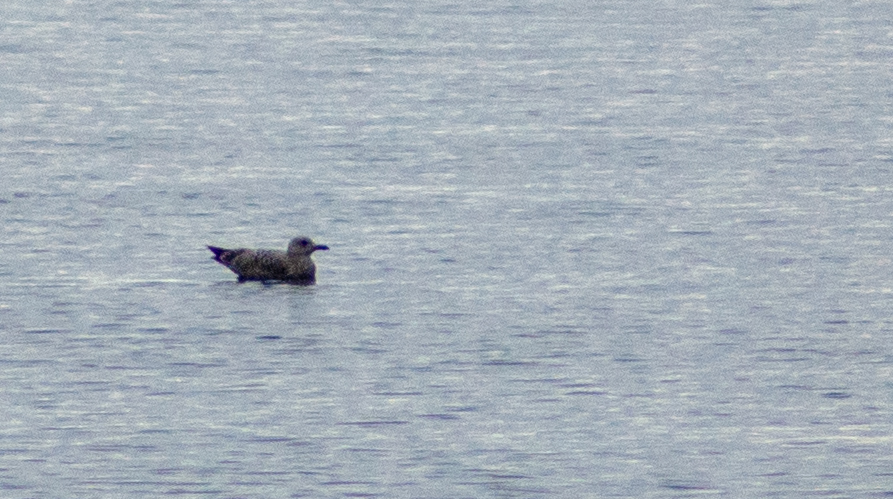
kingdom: Animalia
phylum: Chordata
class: Aves
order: Charadriiformes
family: Laridae
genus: Larus
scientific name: Larus argentatus
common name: Herring gull
